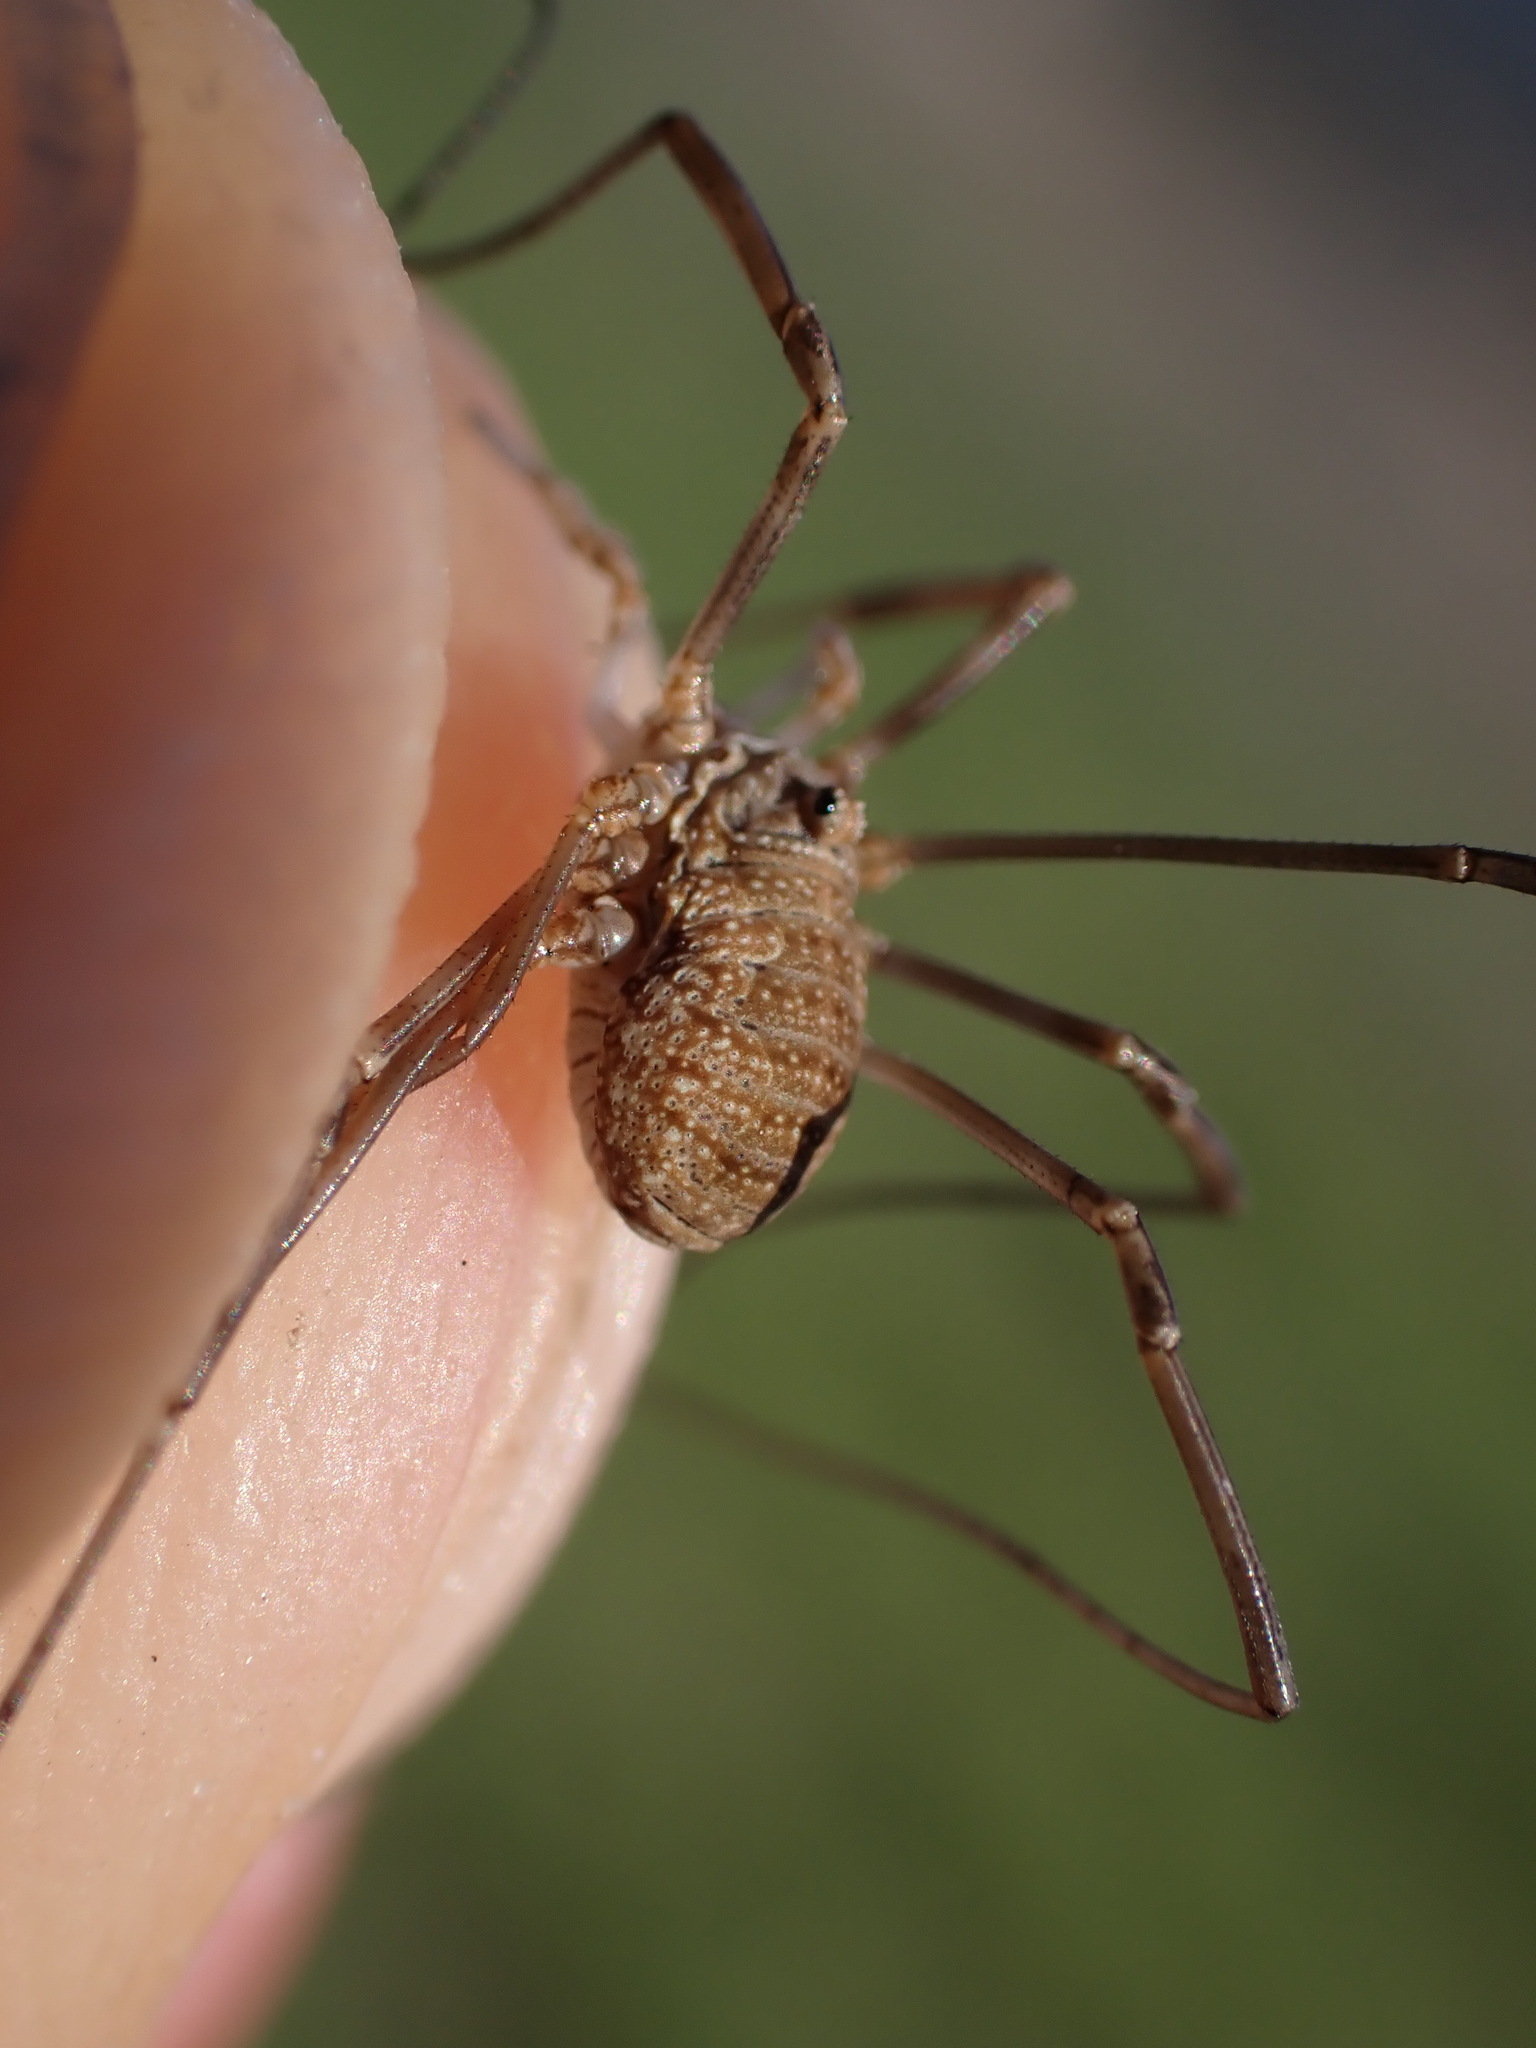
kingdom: Animalia
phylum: Arthropoda
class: Arachnida
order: Opiliones
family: Phalangiidae
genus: Phalangium
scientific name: Phalangium opilio
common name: Daddy longleg
